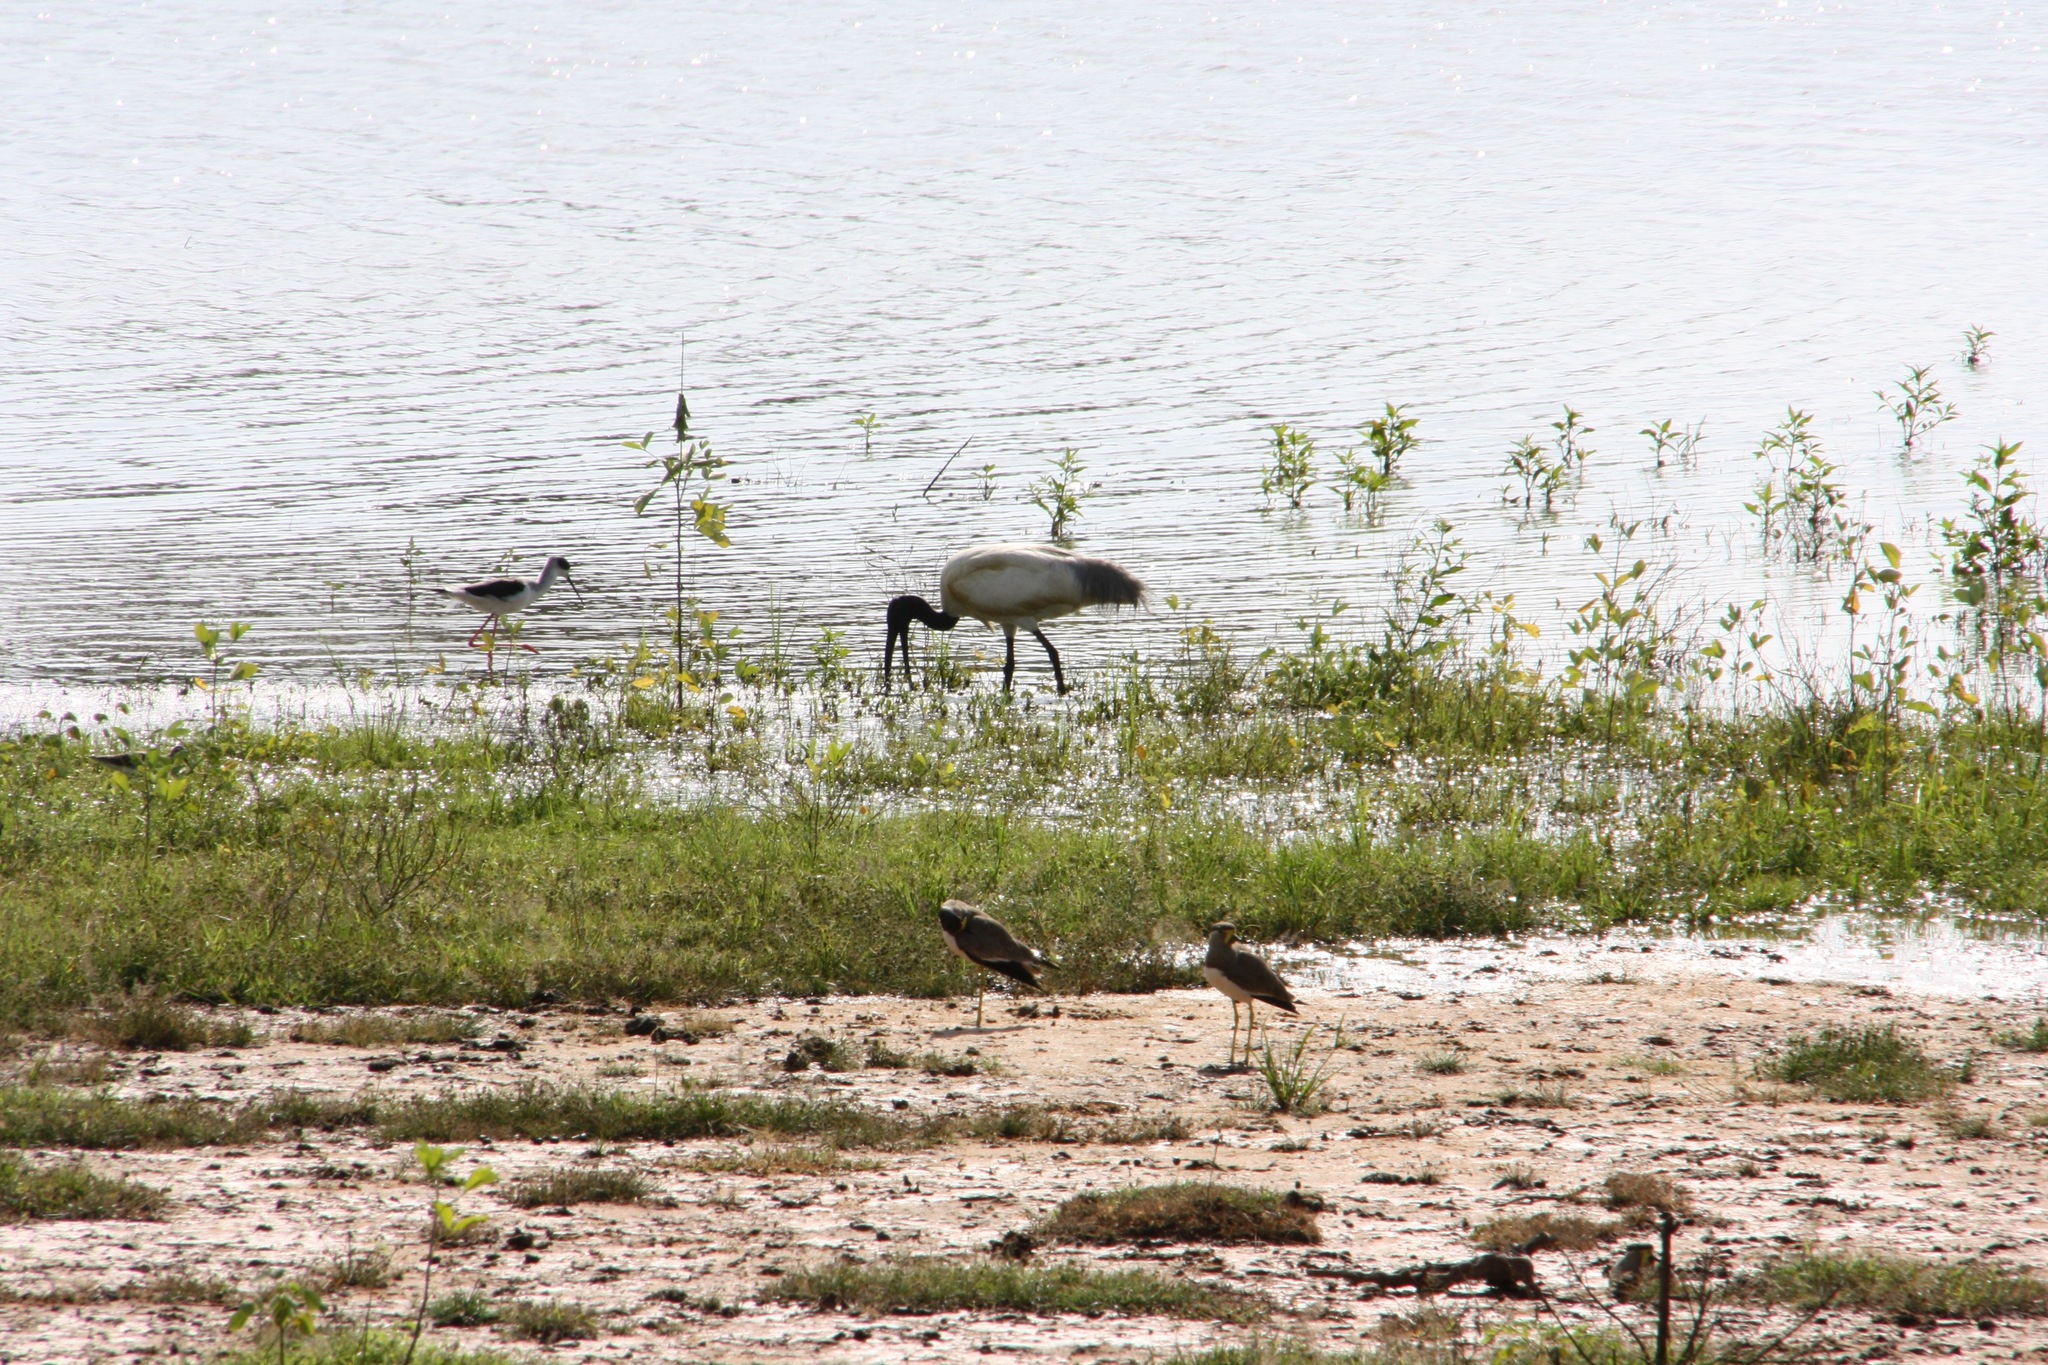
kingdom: Animalia
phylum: Chordata
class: Aves
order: Pelecaniformes
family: Threskiornithidae
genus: Threskiornis
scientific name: Threskiornis melanocephalus
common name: Black-headed ibis
